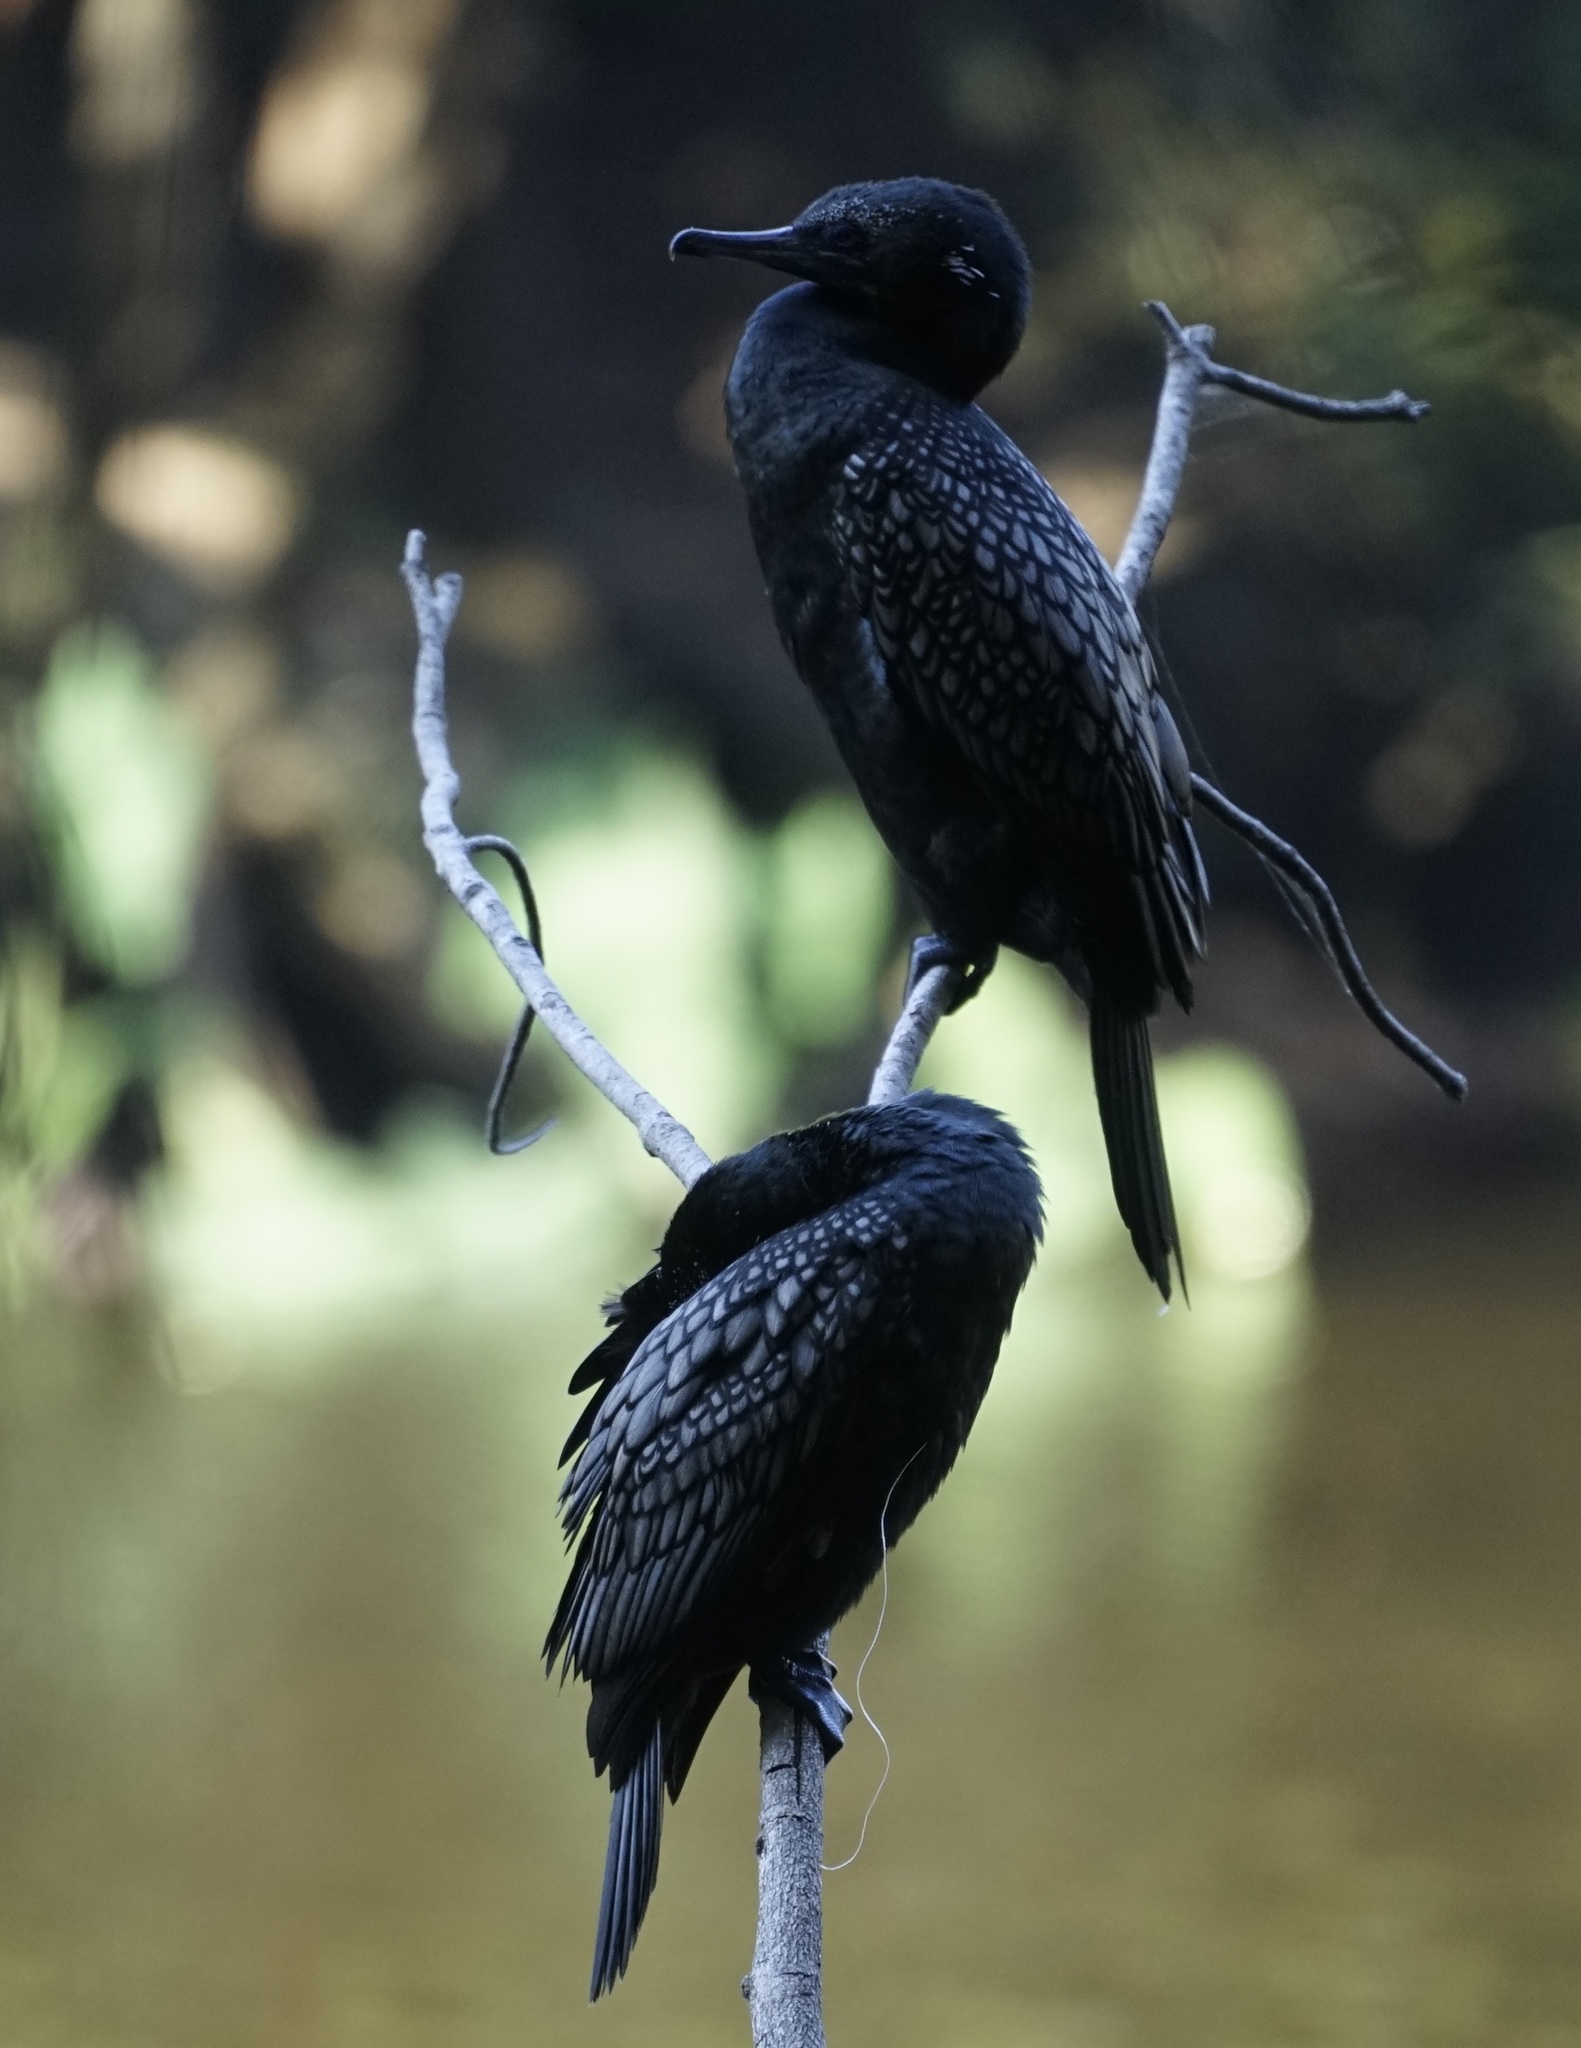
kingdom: Animalia
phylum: Chordata
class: Aves
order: Suliformes
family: Phalacrocoracidae
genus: Phalacrocorax
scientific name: Phalacrocorax sulcirostris
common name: Little black cormorant
